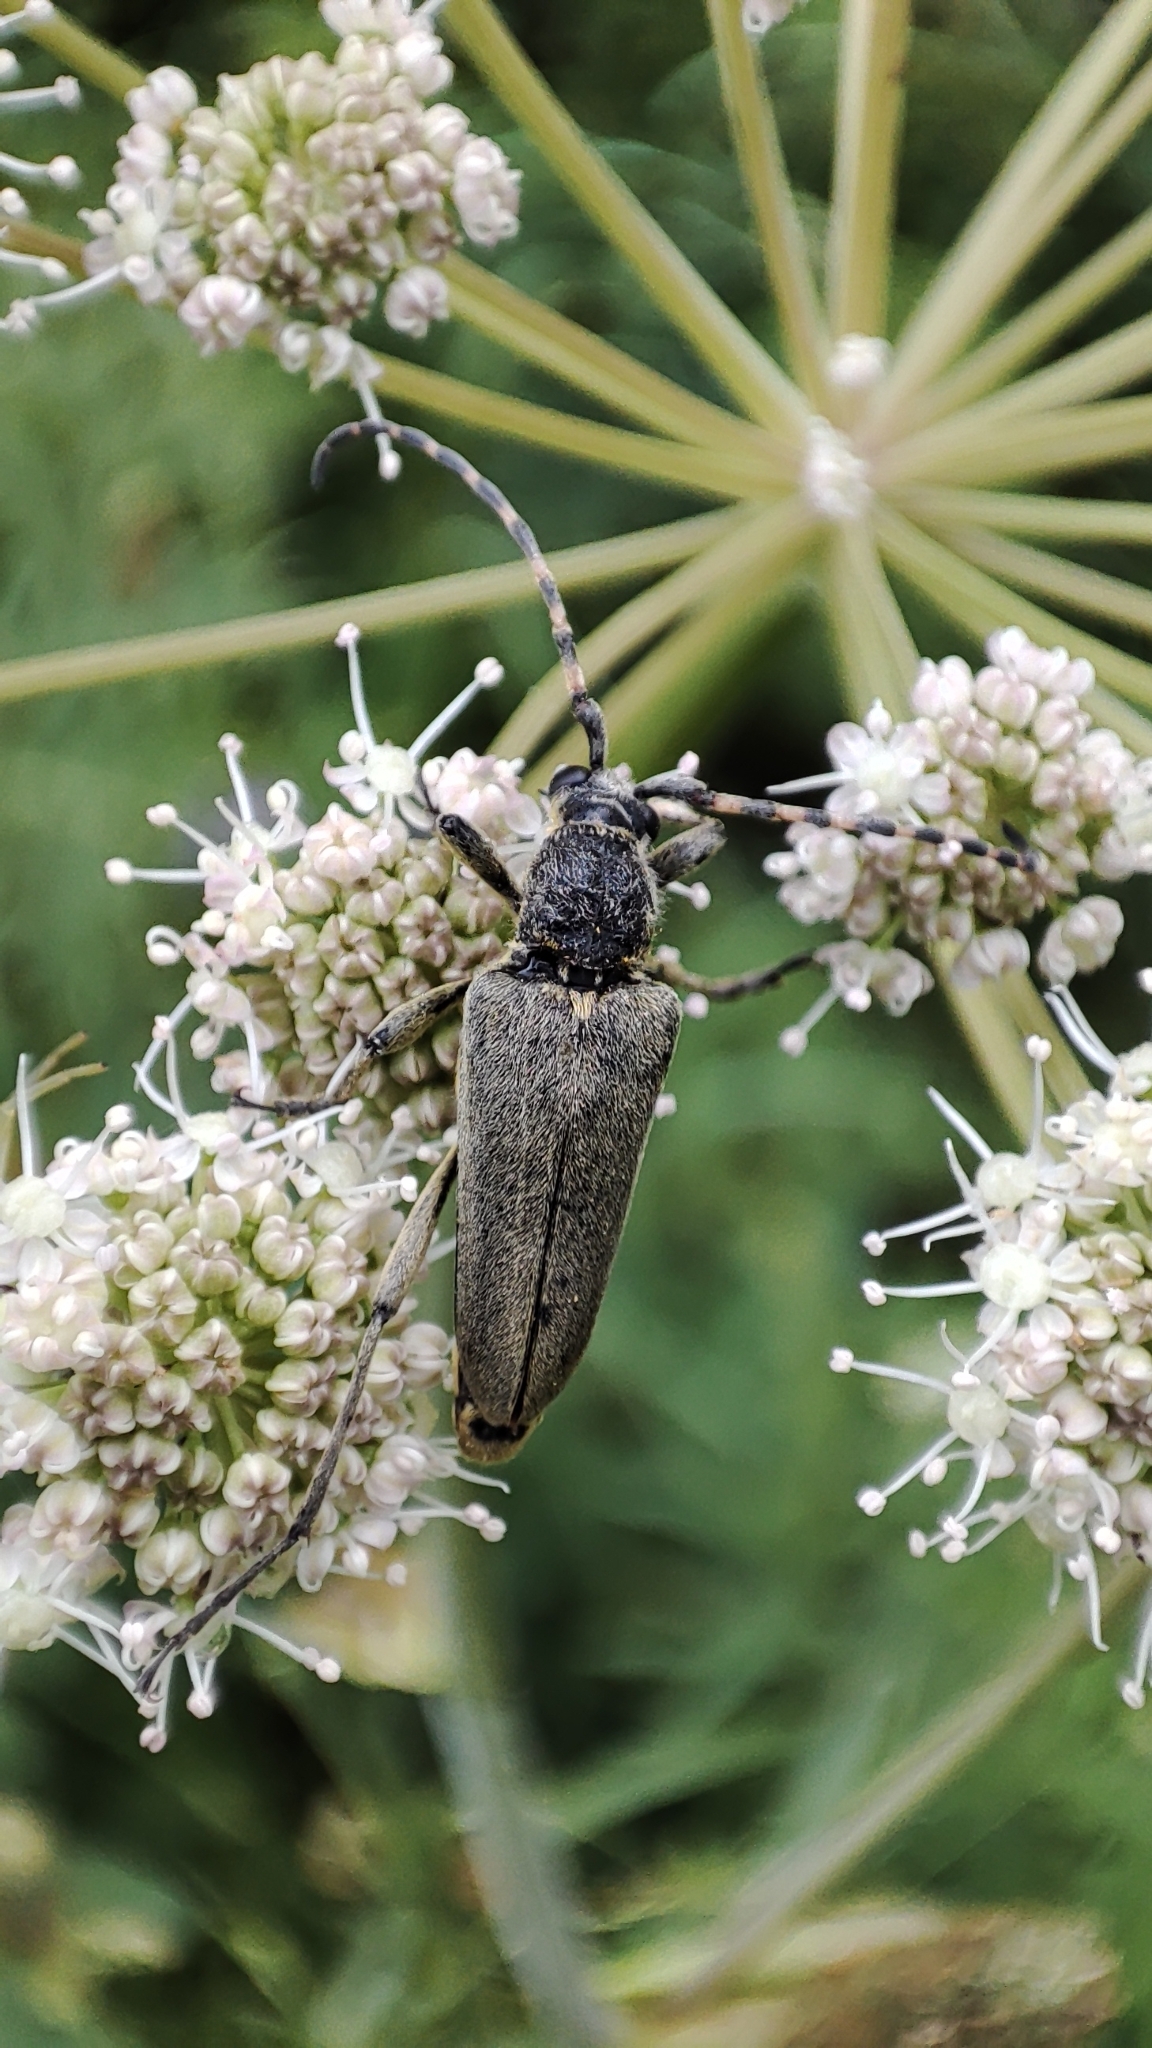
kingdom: Animalia
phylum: Arthropoda
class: Insecta
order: Coleoptera
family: Cerambycidae
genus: Lepturobosca
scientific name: Lepturobosca virens
